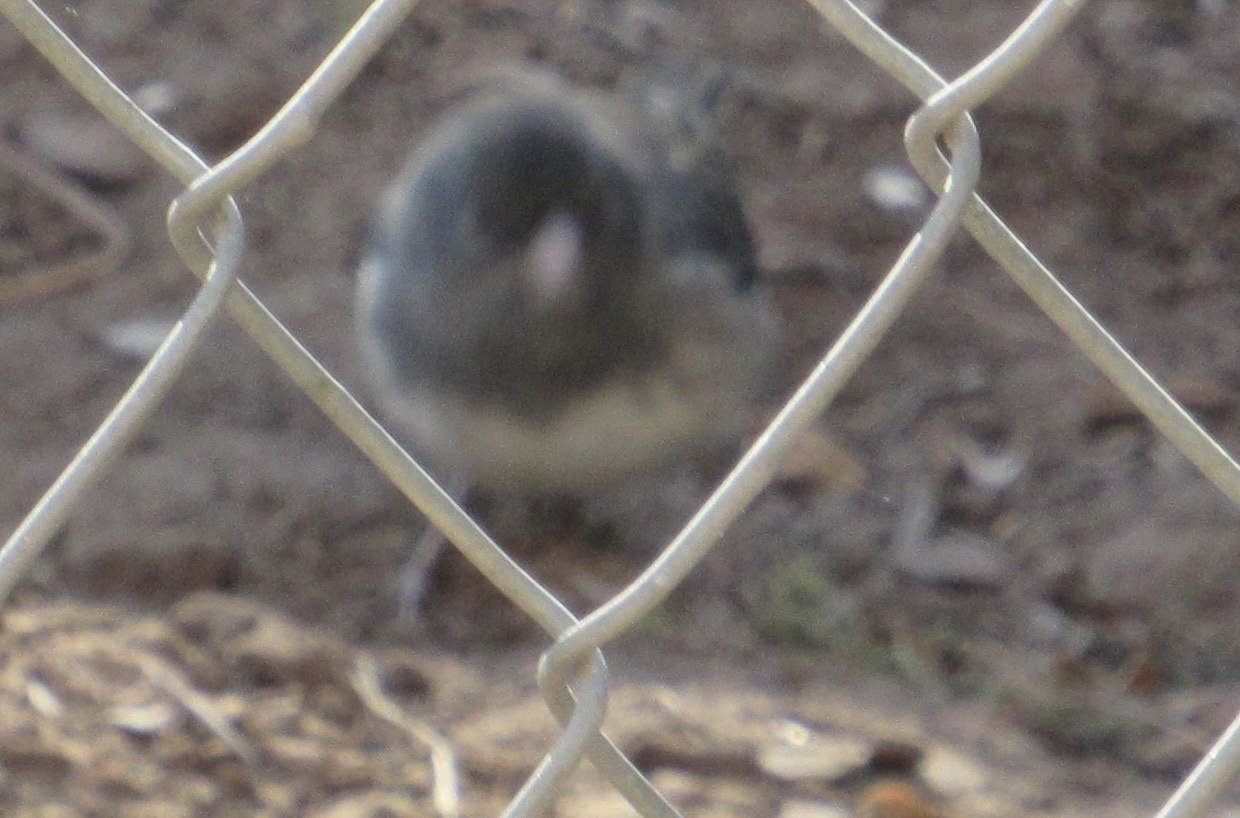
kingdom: Animalia
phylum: Chordata
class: Aves
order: Passeriformes
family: Passerellidae
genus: Junco
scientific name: Junco hyemalis
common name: Dark-eyed junco
